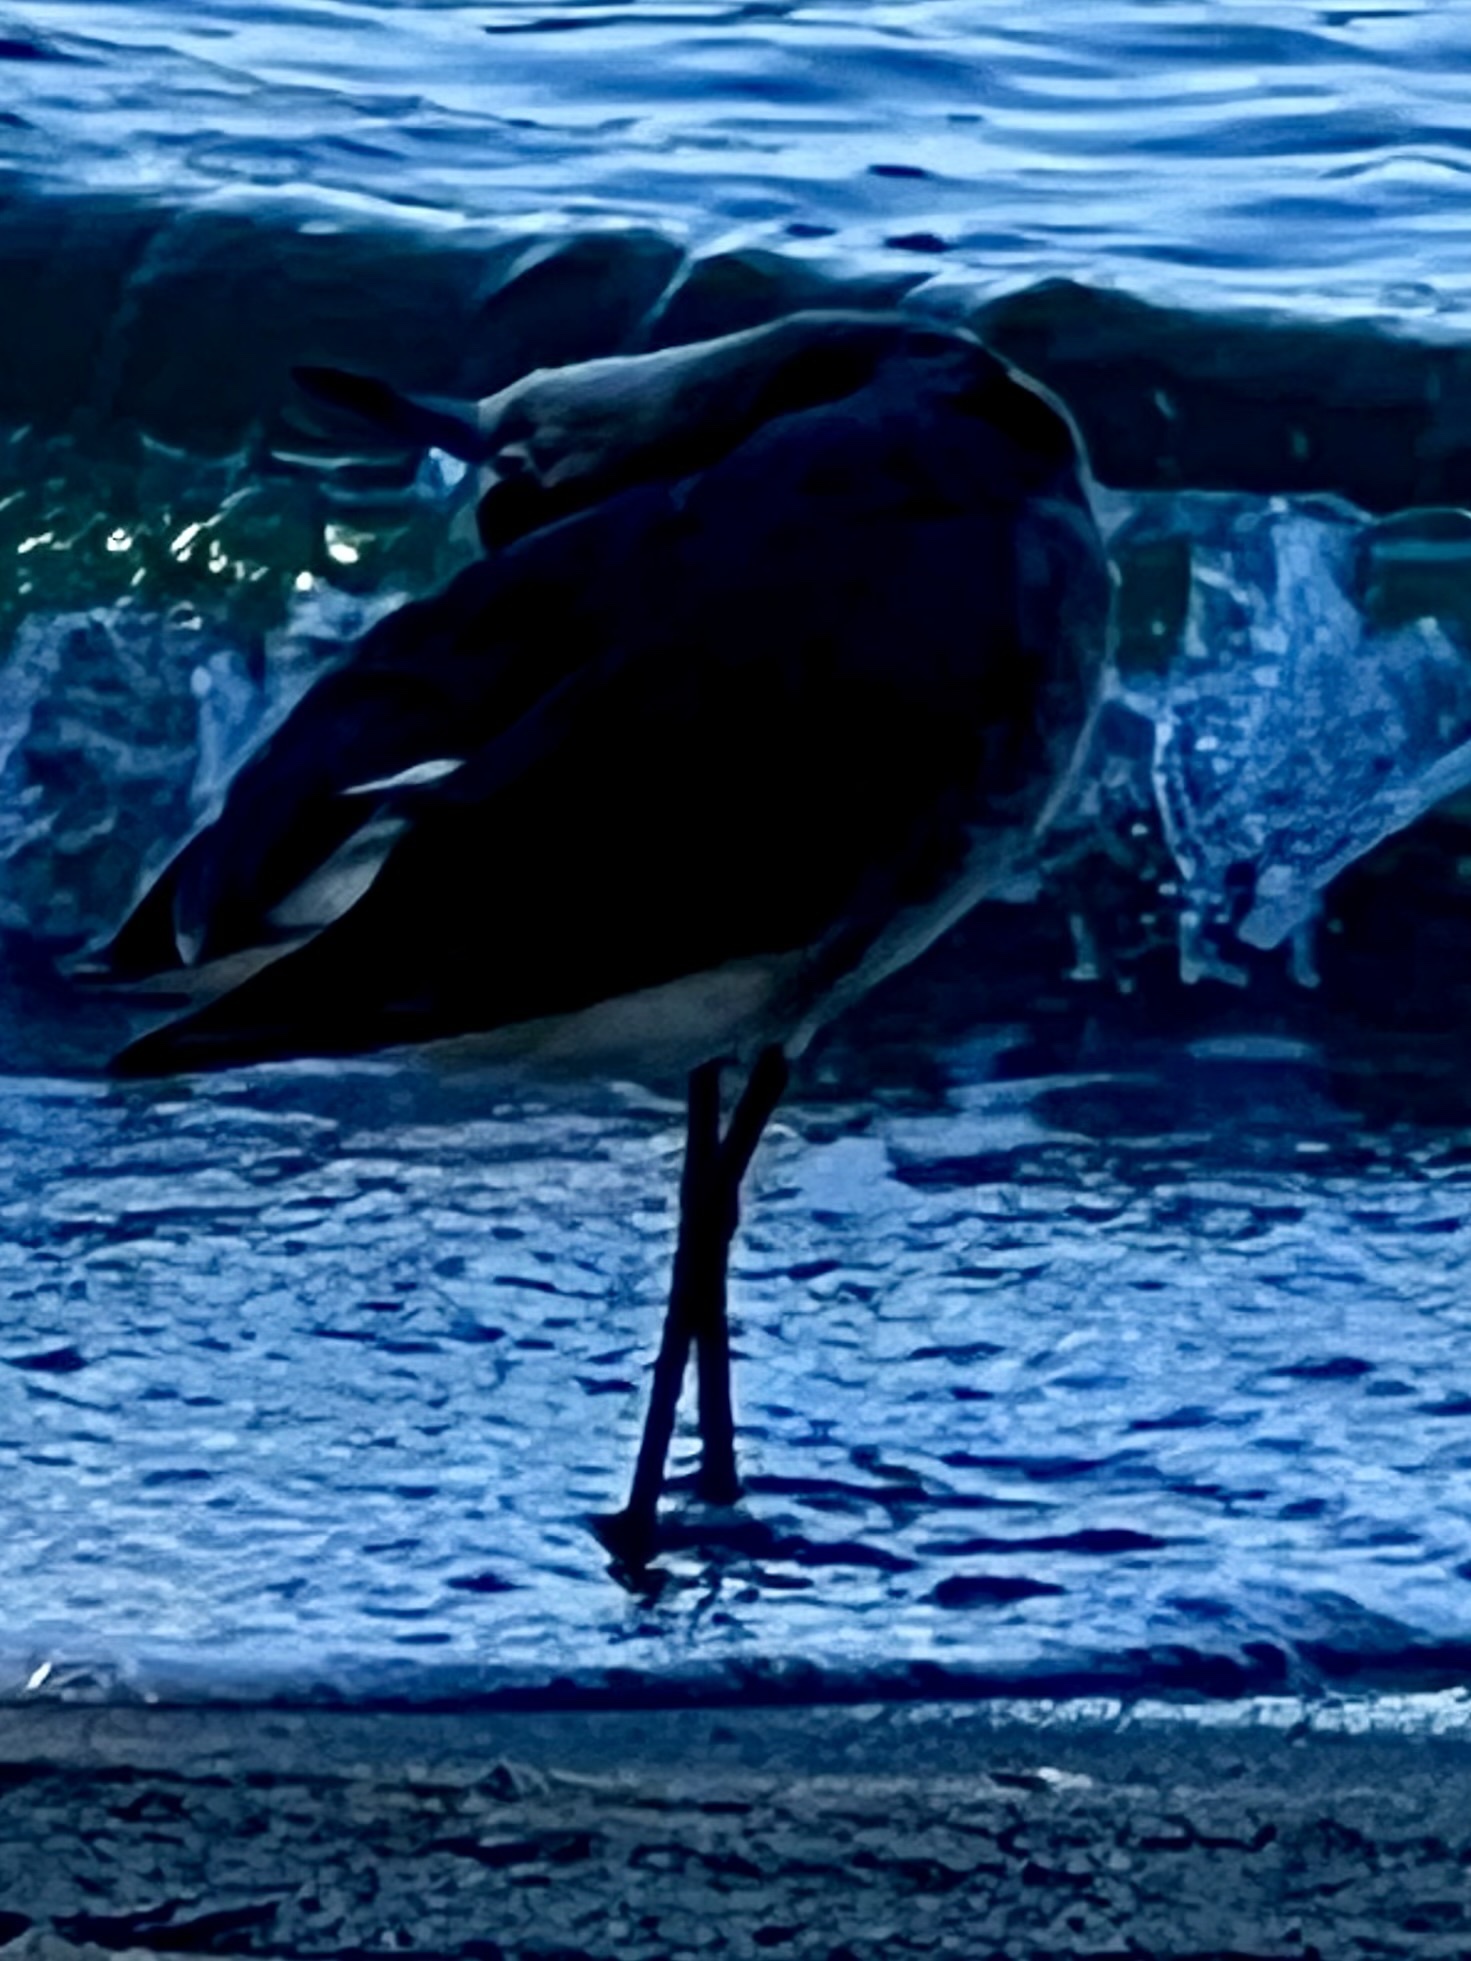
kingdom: Animalia
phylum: Chordata
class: Aves
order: Charadriiformes
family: Scolopacidae
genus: Tringa
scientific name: Tringa semipalmata
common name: Willet
